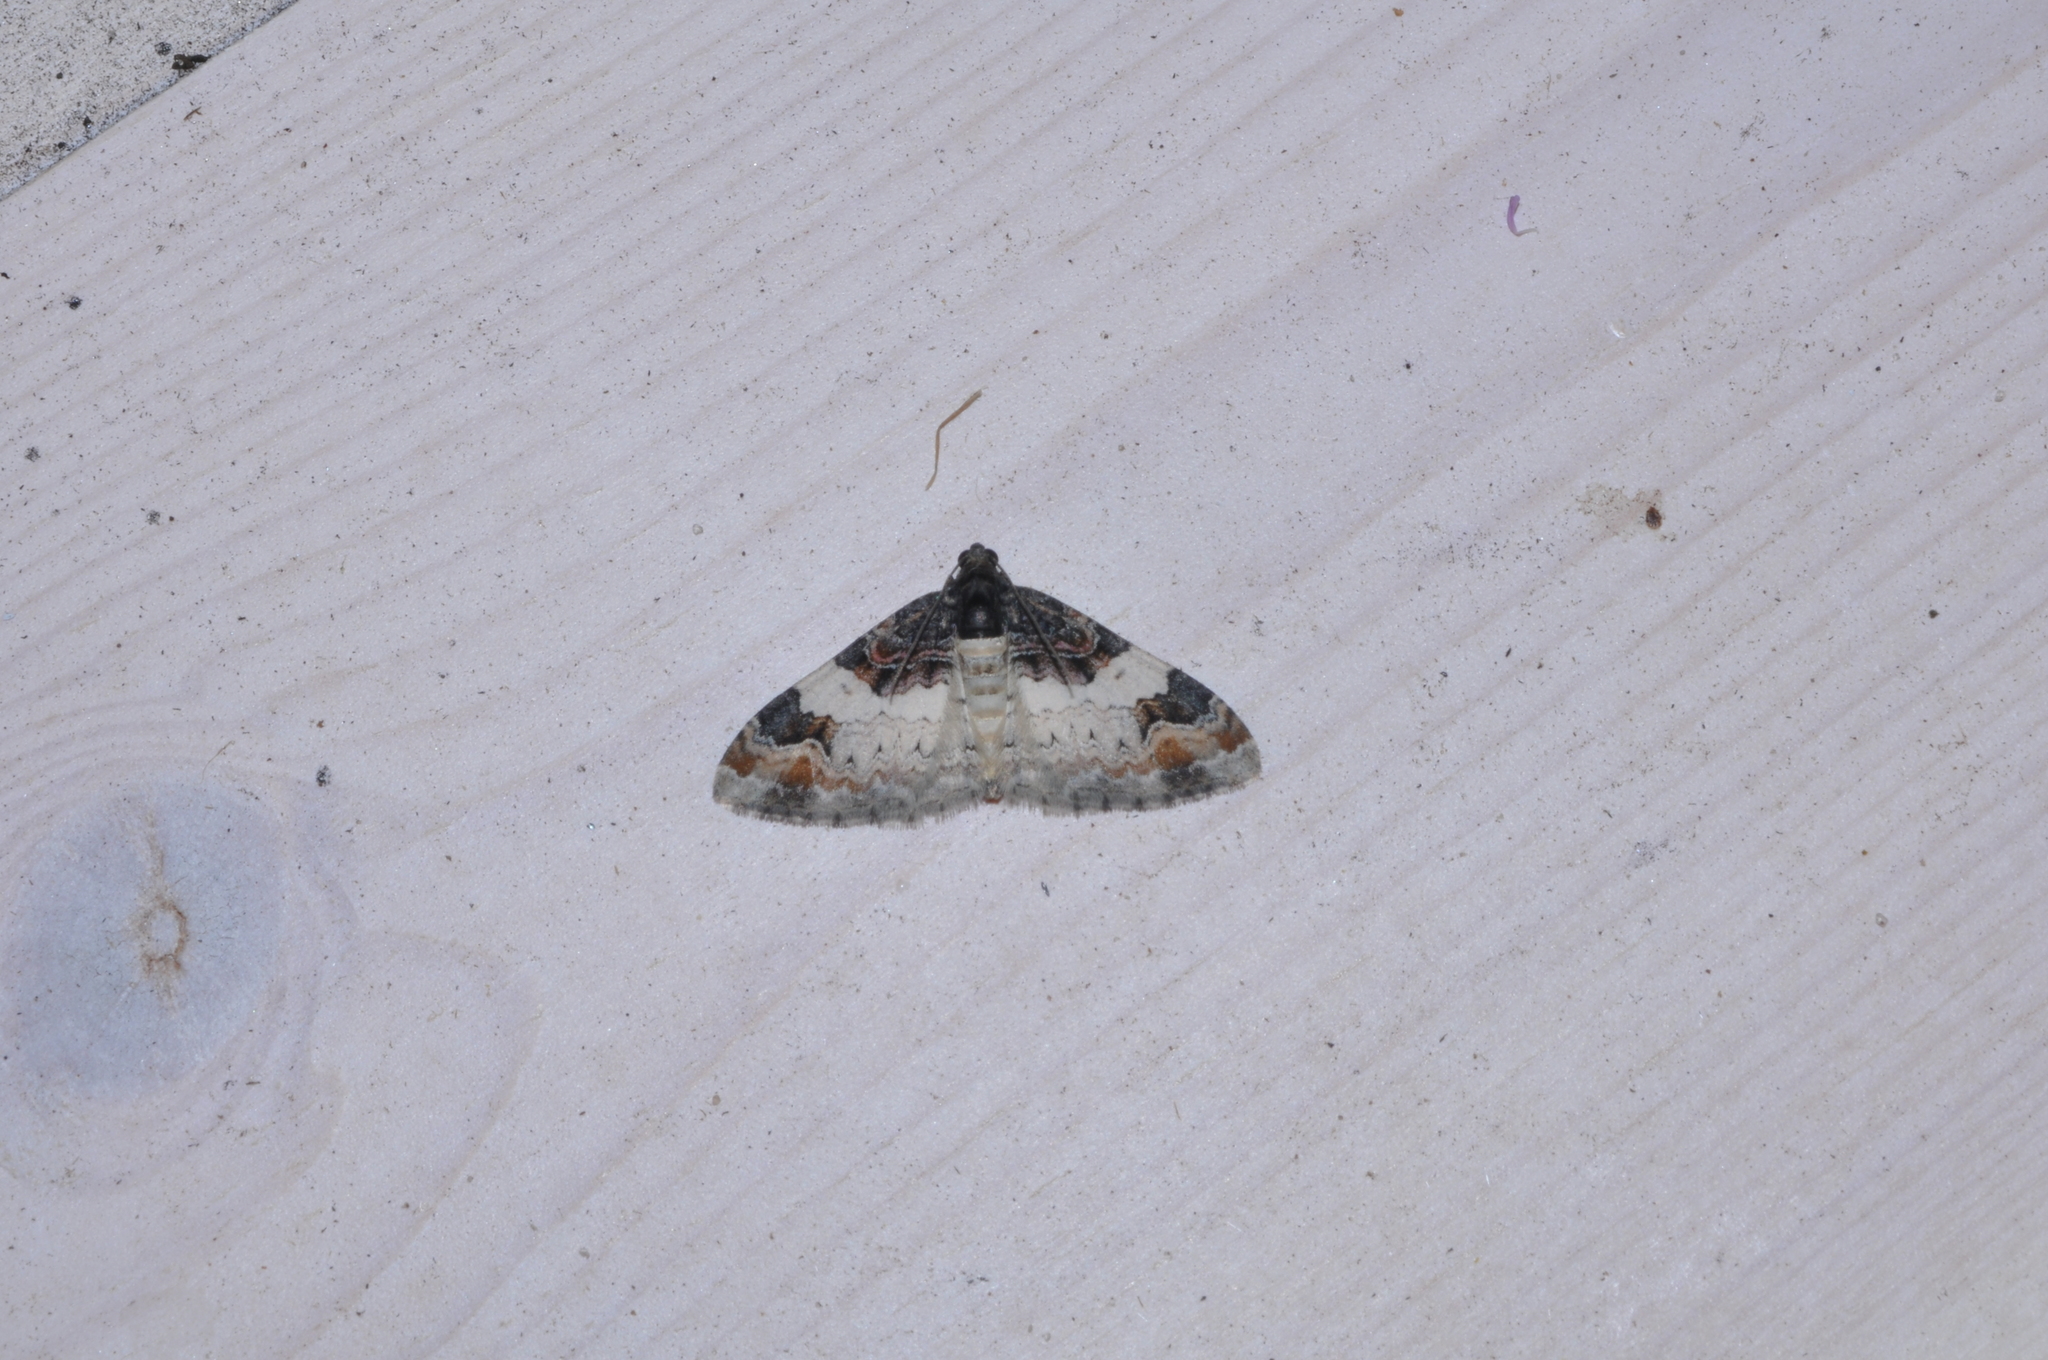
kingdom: Animalia
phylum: Arthropoda
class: Insecta
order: Lepidoptera
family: Geometridae
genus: Catarhoe
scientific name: Catarhoe cuculata
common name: Royal mantle
